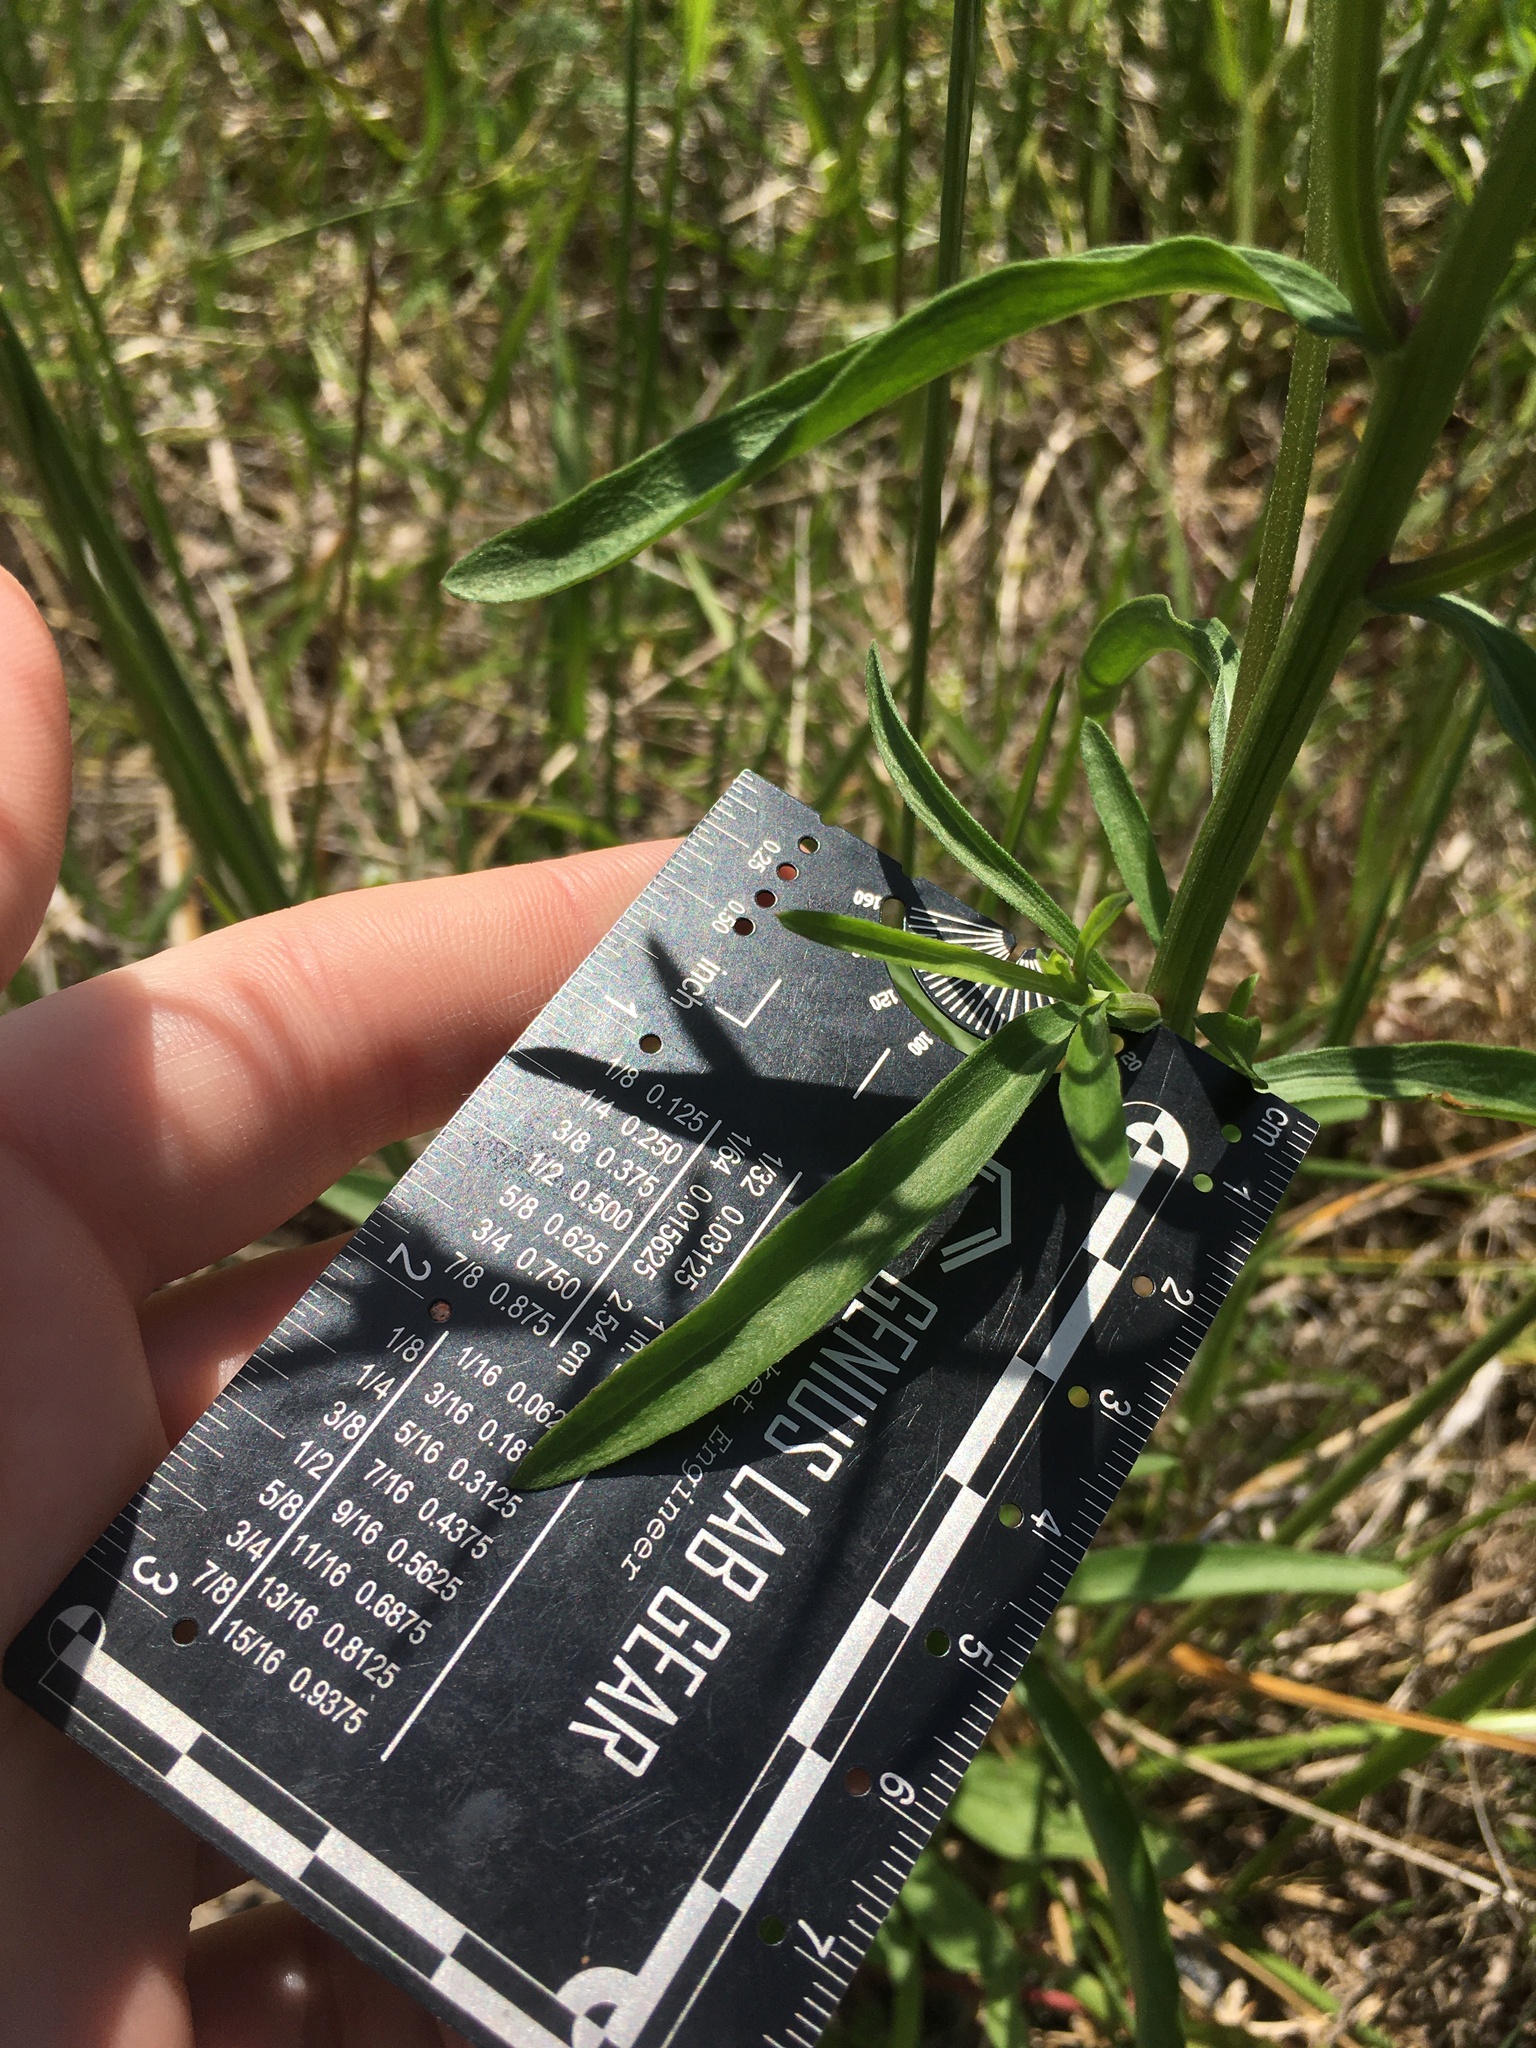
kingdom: Plantae
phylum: Tracheophyta
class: Magnoliopsida
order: Asterales
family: Asteraceae
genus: Erigeron
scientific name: Erigeron strigosus
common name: Common eastern fleabane
